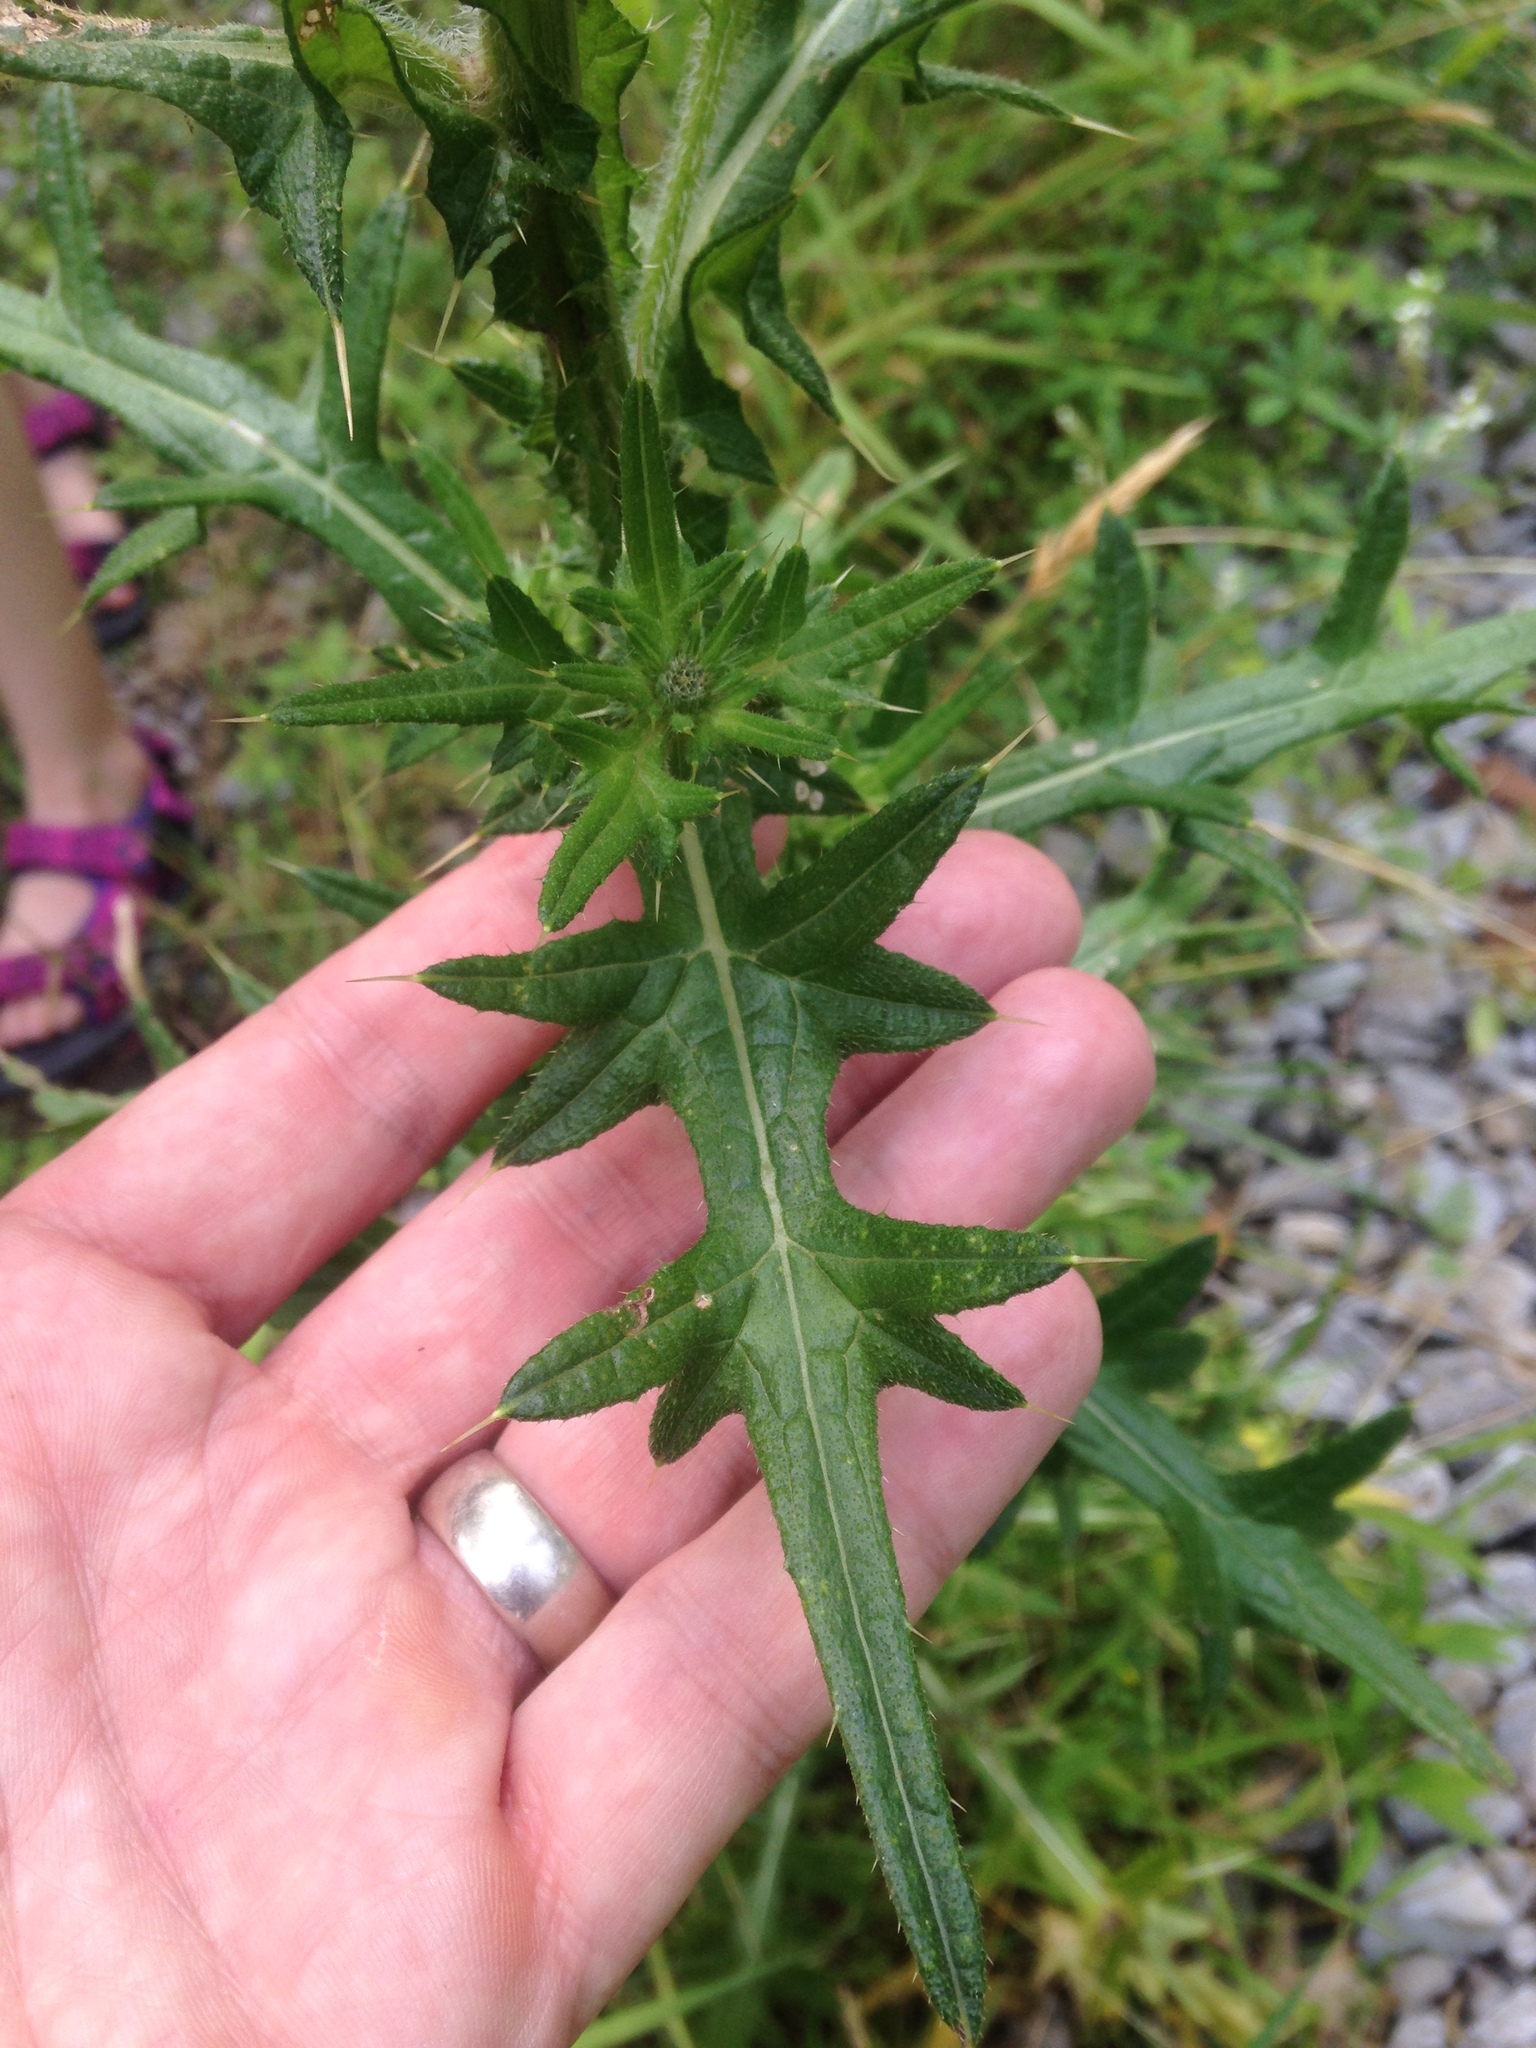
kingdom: Plantae
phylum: Tracheophyta
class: Magnoliopsida
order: Asterales
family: Asteraceae
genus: Cirsium
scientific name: Cirsium vulgare
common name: Bull thistle
